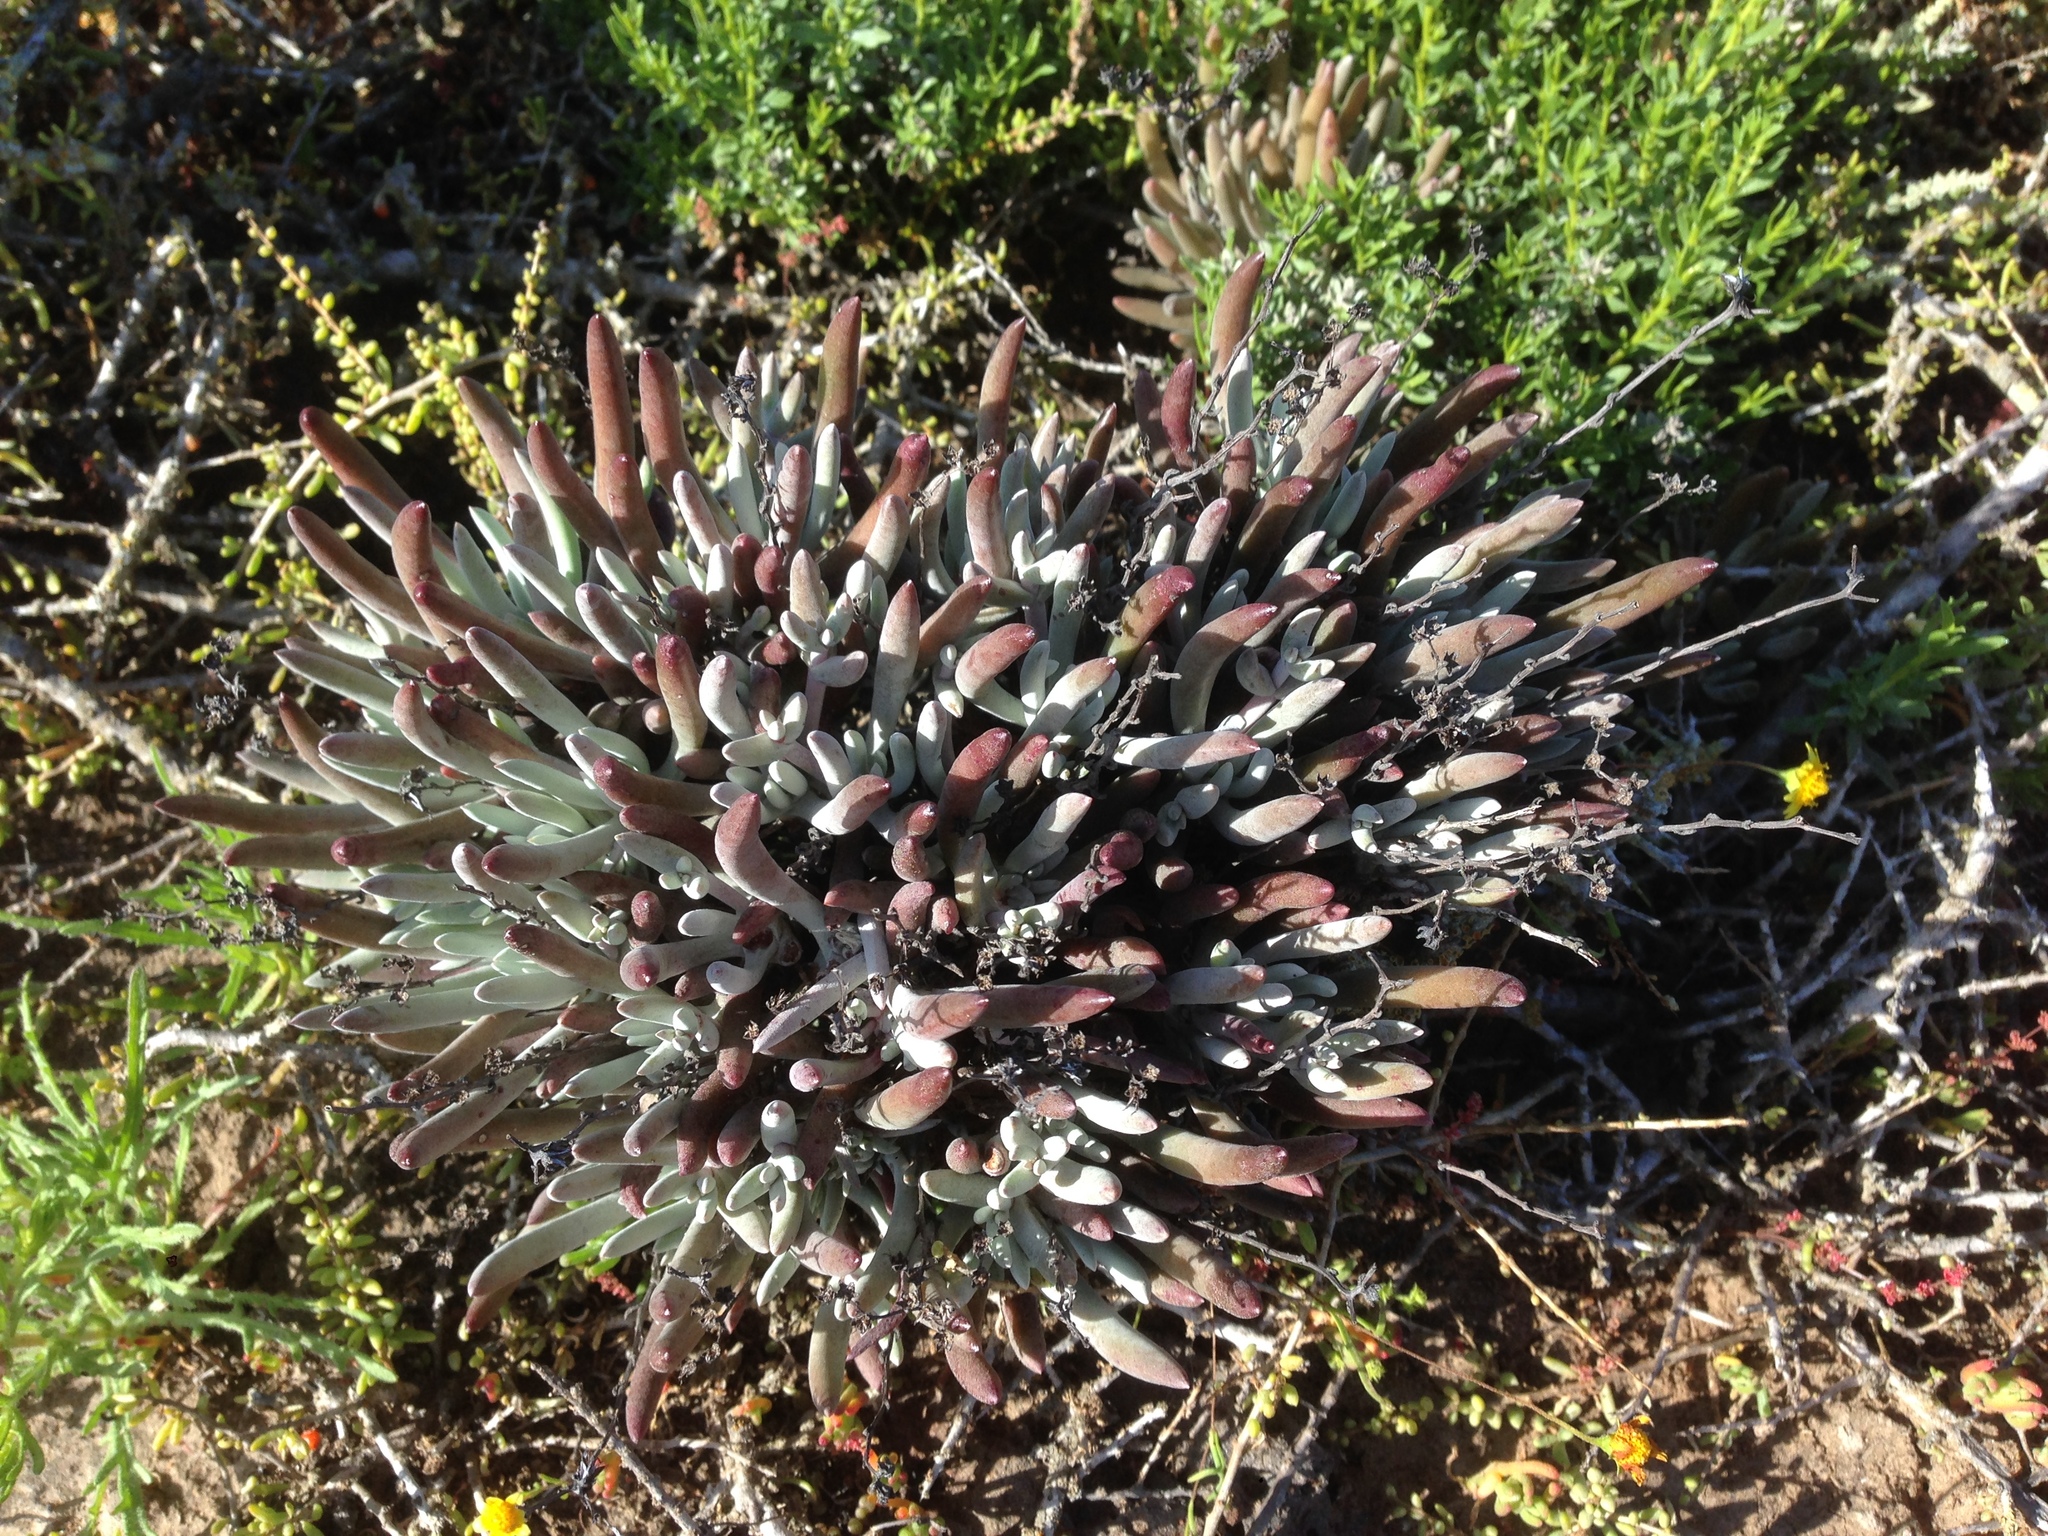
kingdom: Plantae
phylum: Tracheophyta
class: Magnoliopsida
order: Saxifragales
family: Crassulaceae
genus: Dudleya
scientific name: Dudleya attenuata
